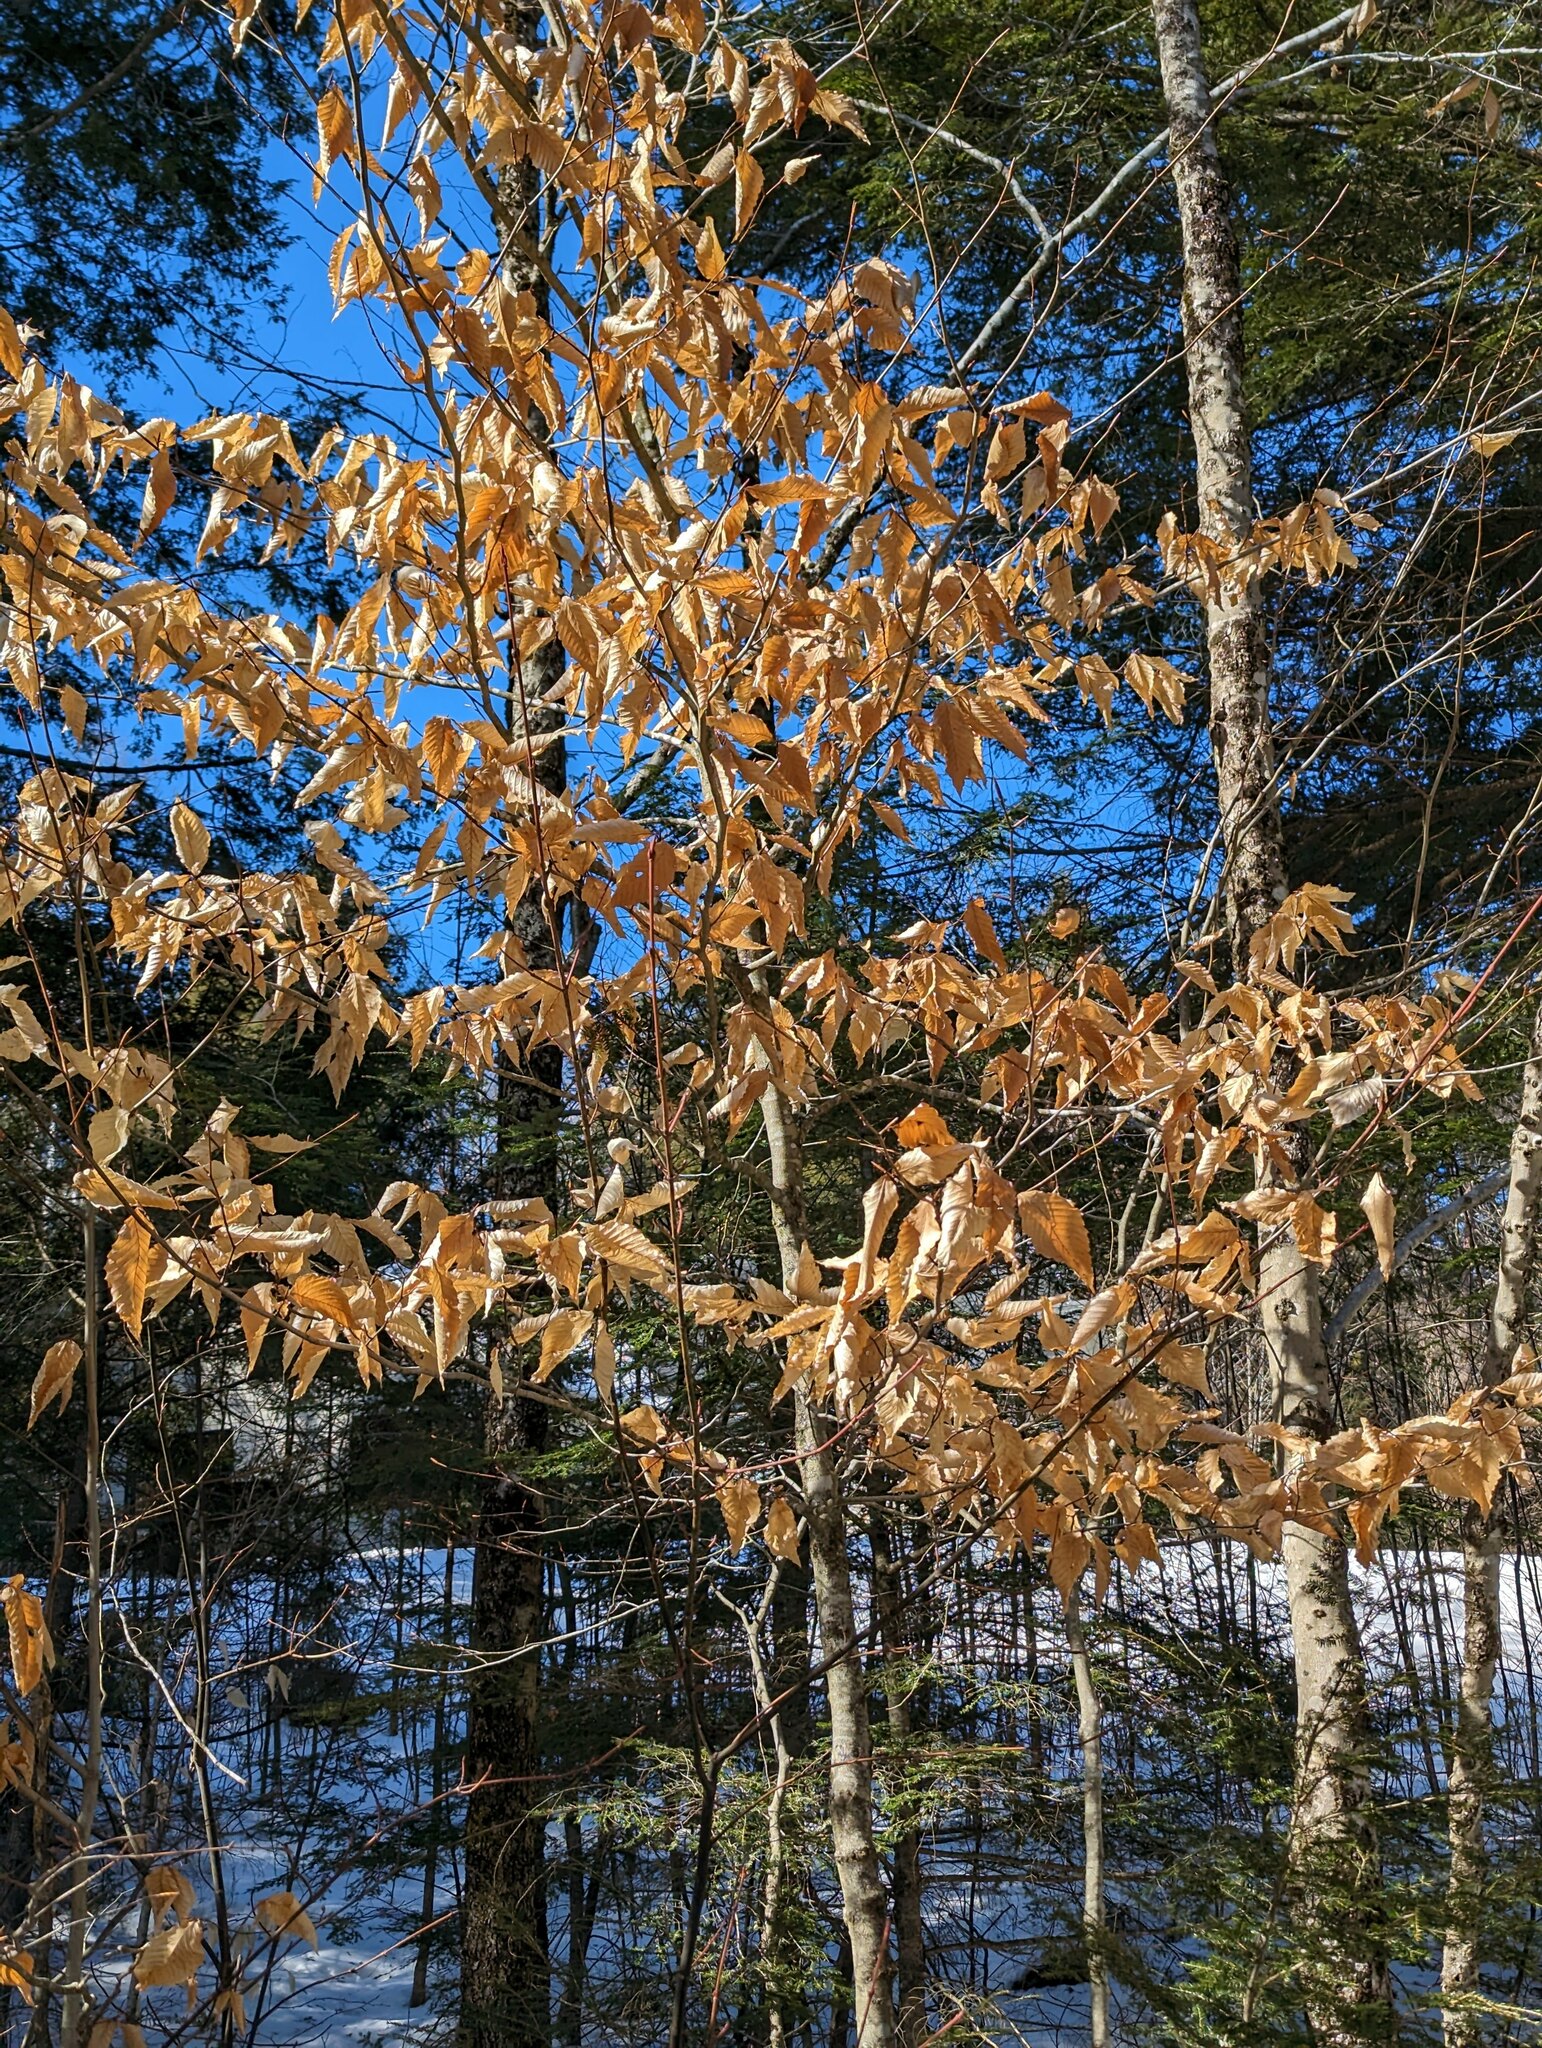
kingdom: Plantae
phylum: Tracheophyta
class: Magnoliopsida
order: Fagales
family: Fagaceae
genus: Fagus
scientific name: Fagus grandifolia
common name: American beech
